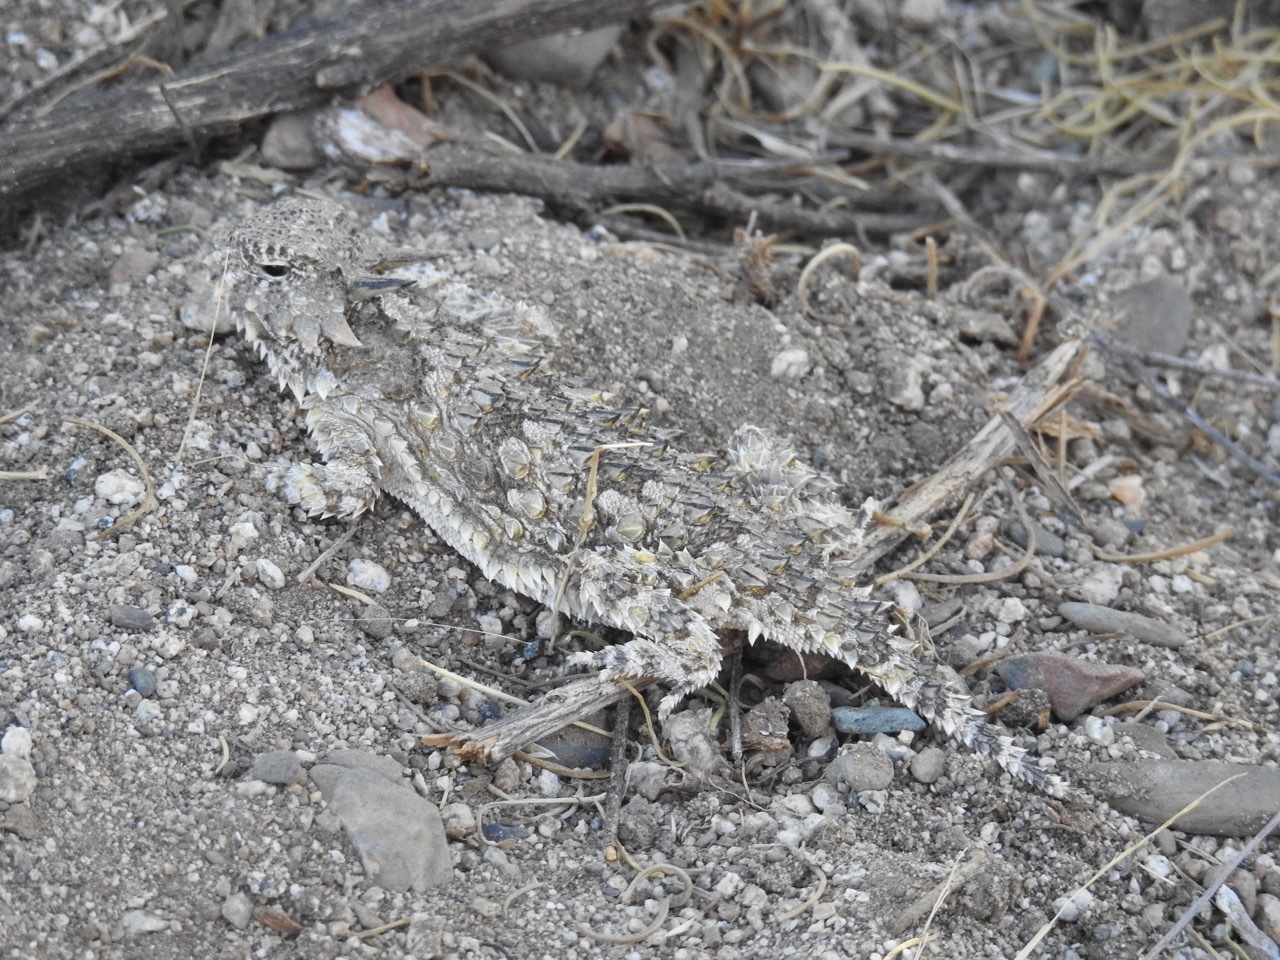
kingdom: Animalia
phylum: Chordata
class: Squamata
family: Phrynosomatidae
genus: Phrynosoma
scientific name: Phrynosoma cerroense
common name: Cedros island horned lizard
